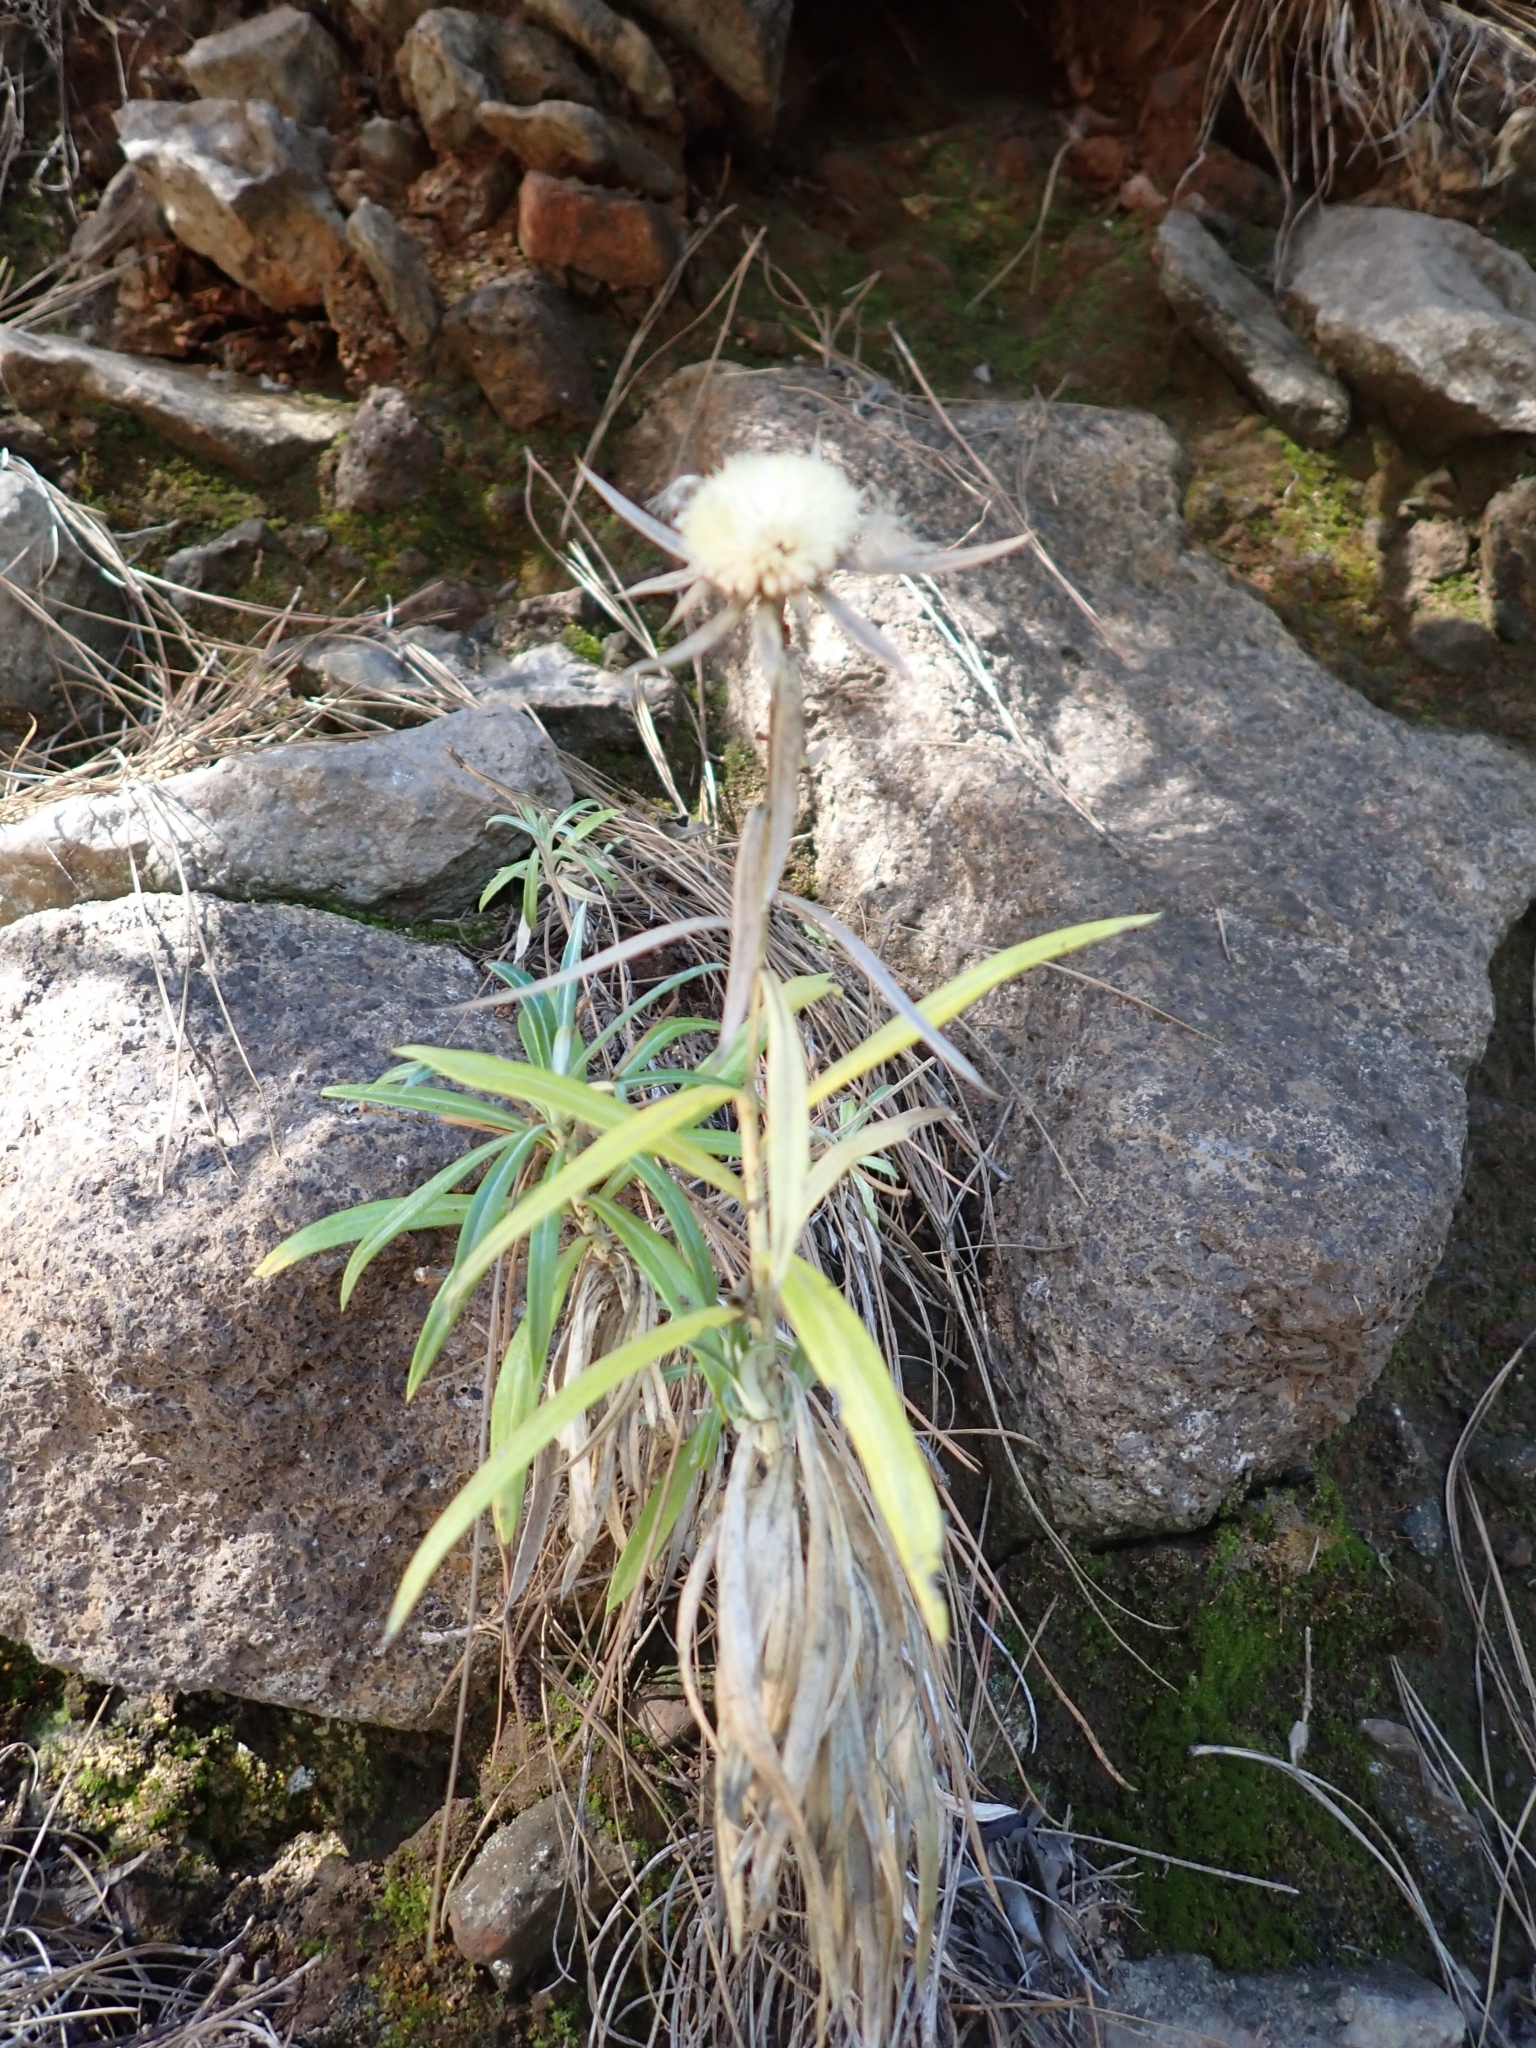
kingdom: Plantae
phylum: Tracheophyta
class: Magnoliopsida
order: Asterales
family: Asteraceae
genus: Carlina
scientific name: Carlina falcata
